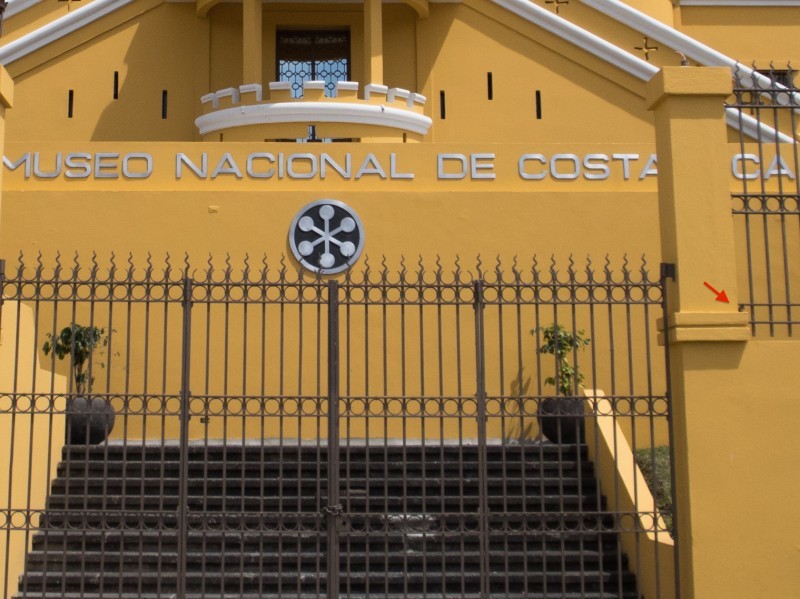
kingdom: Animalia
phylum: Chordata
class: Aves
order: Passeriformes
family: Passerellidae
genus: Zonotrichia
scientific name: Zonotrichia capensis
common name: Rufous-collared sparrow
